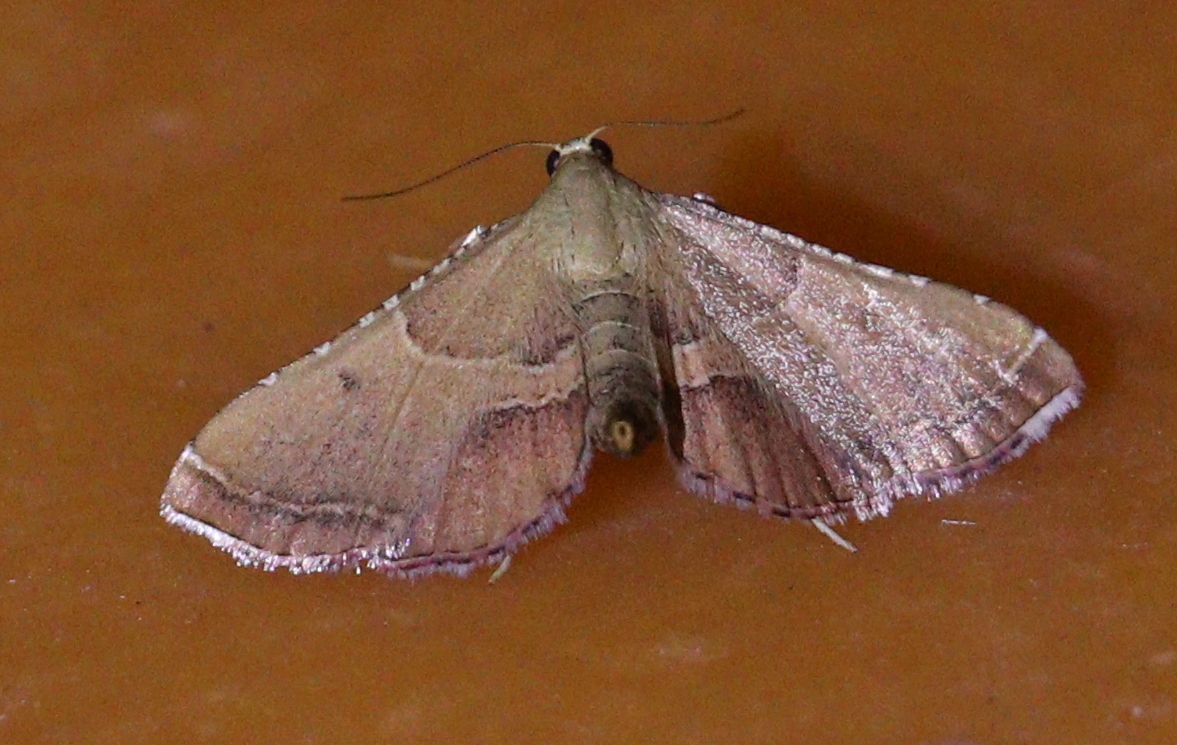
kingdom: Animalia
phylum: Arthropoda
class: Insecta
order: Lepidoptera
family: Pyralidae
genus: Endotricha
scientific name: Endotricha flammealis
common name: Rosy tabby
